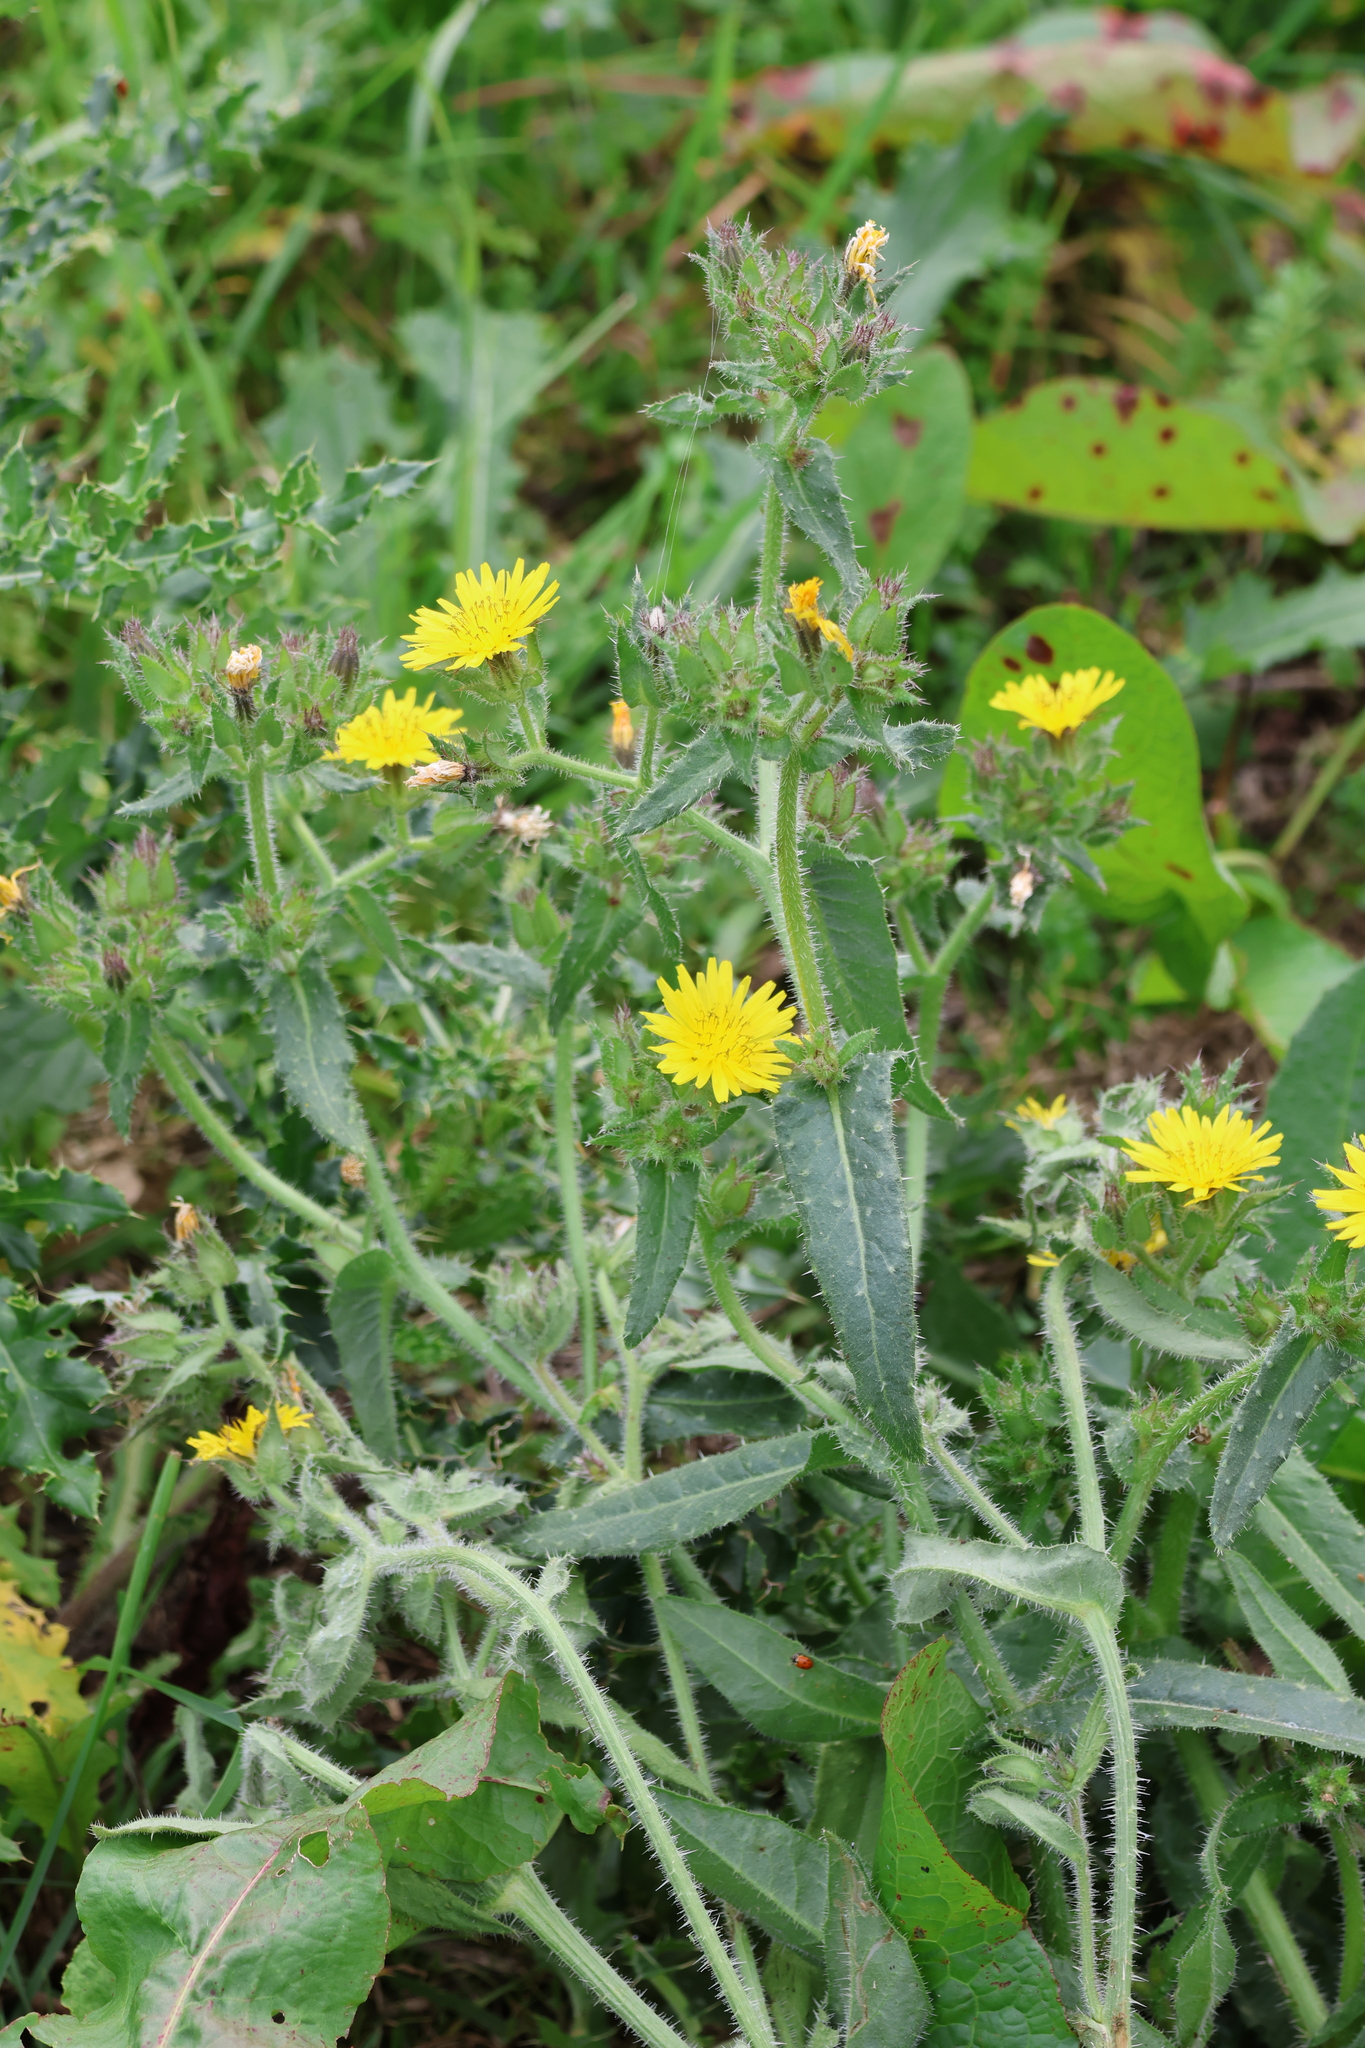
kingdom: Plantae
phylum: Tracheophyta
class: Magnoliopsida
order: Asterales
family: Asteraceae
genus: Helminthotheca
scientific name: Helminthotheca echioides
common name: Ox-tongue
